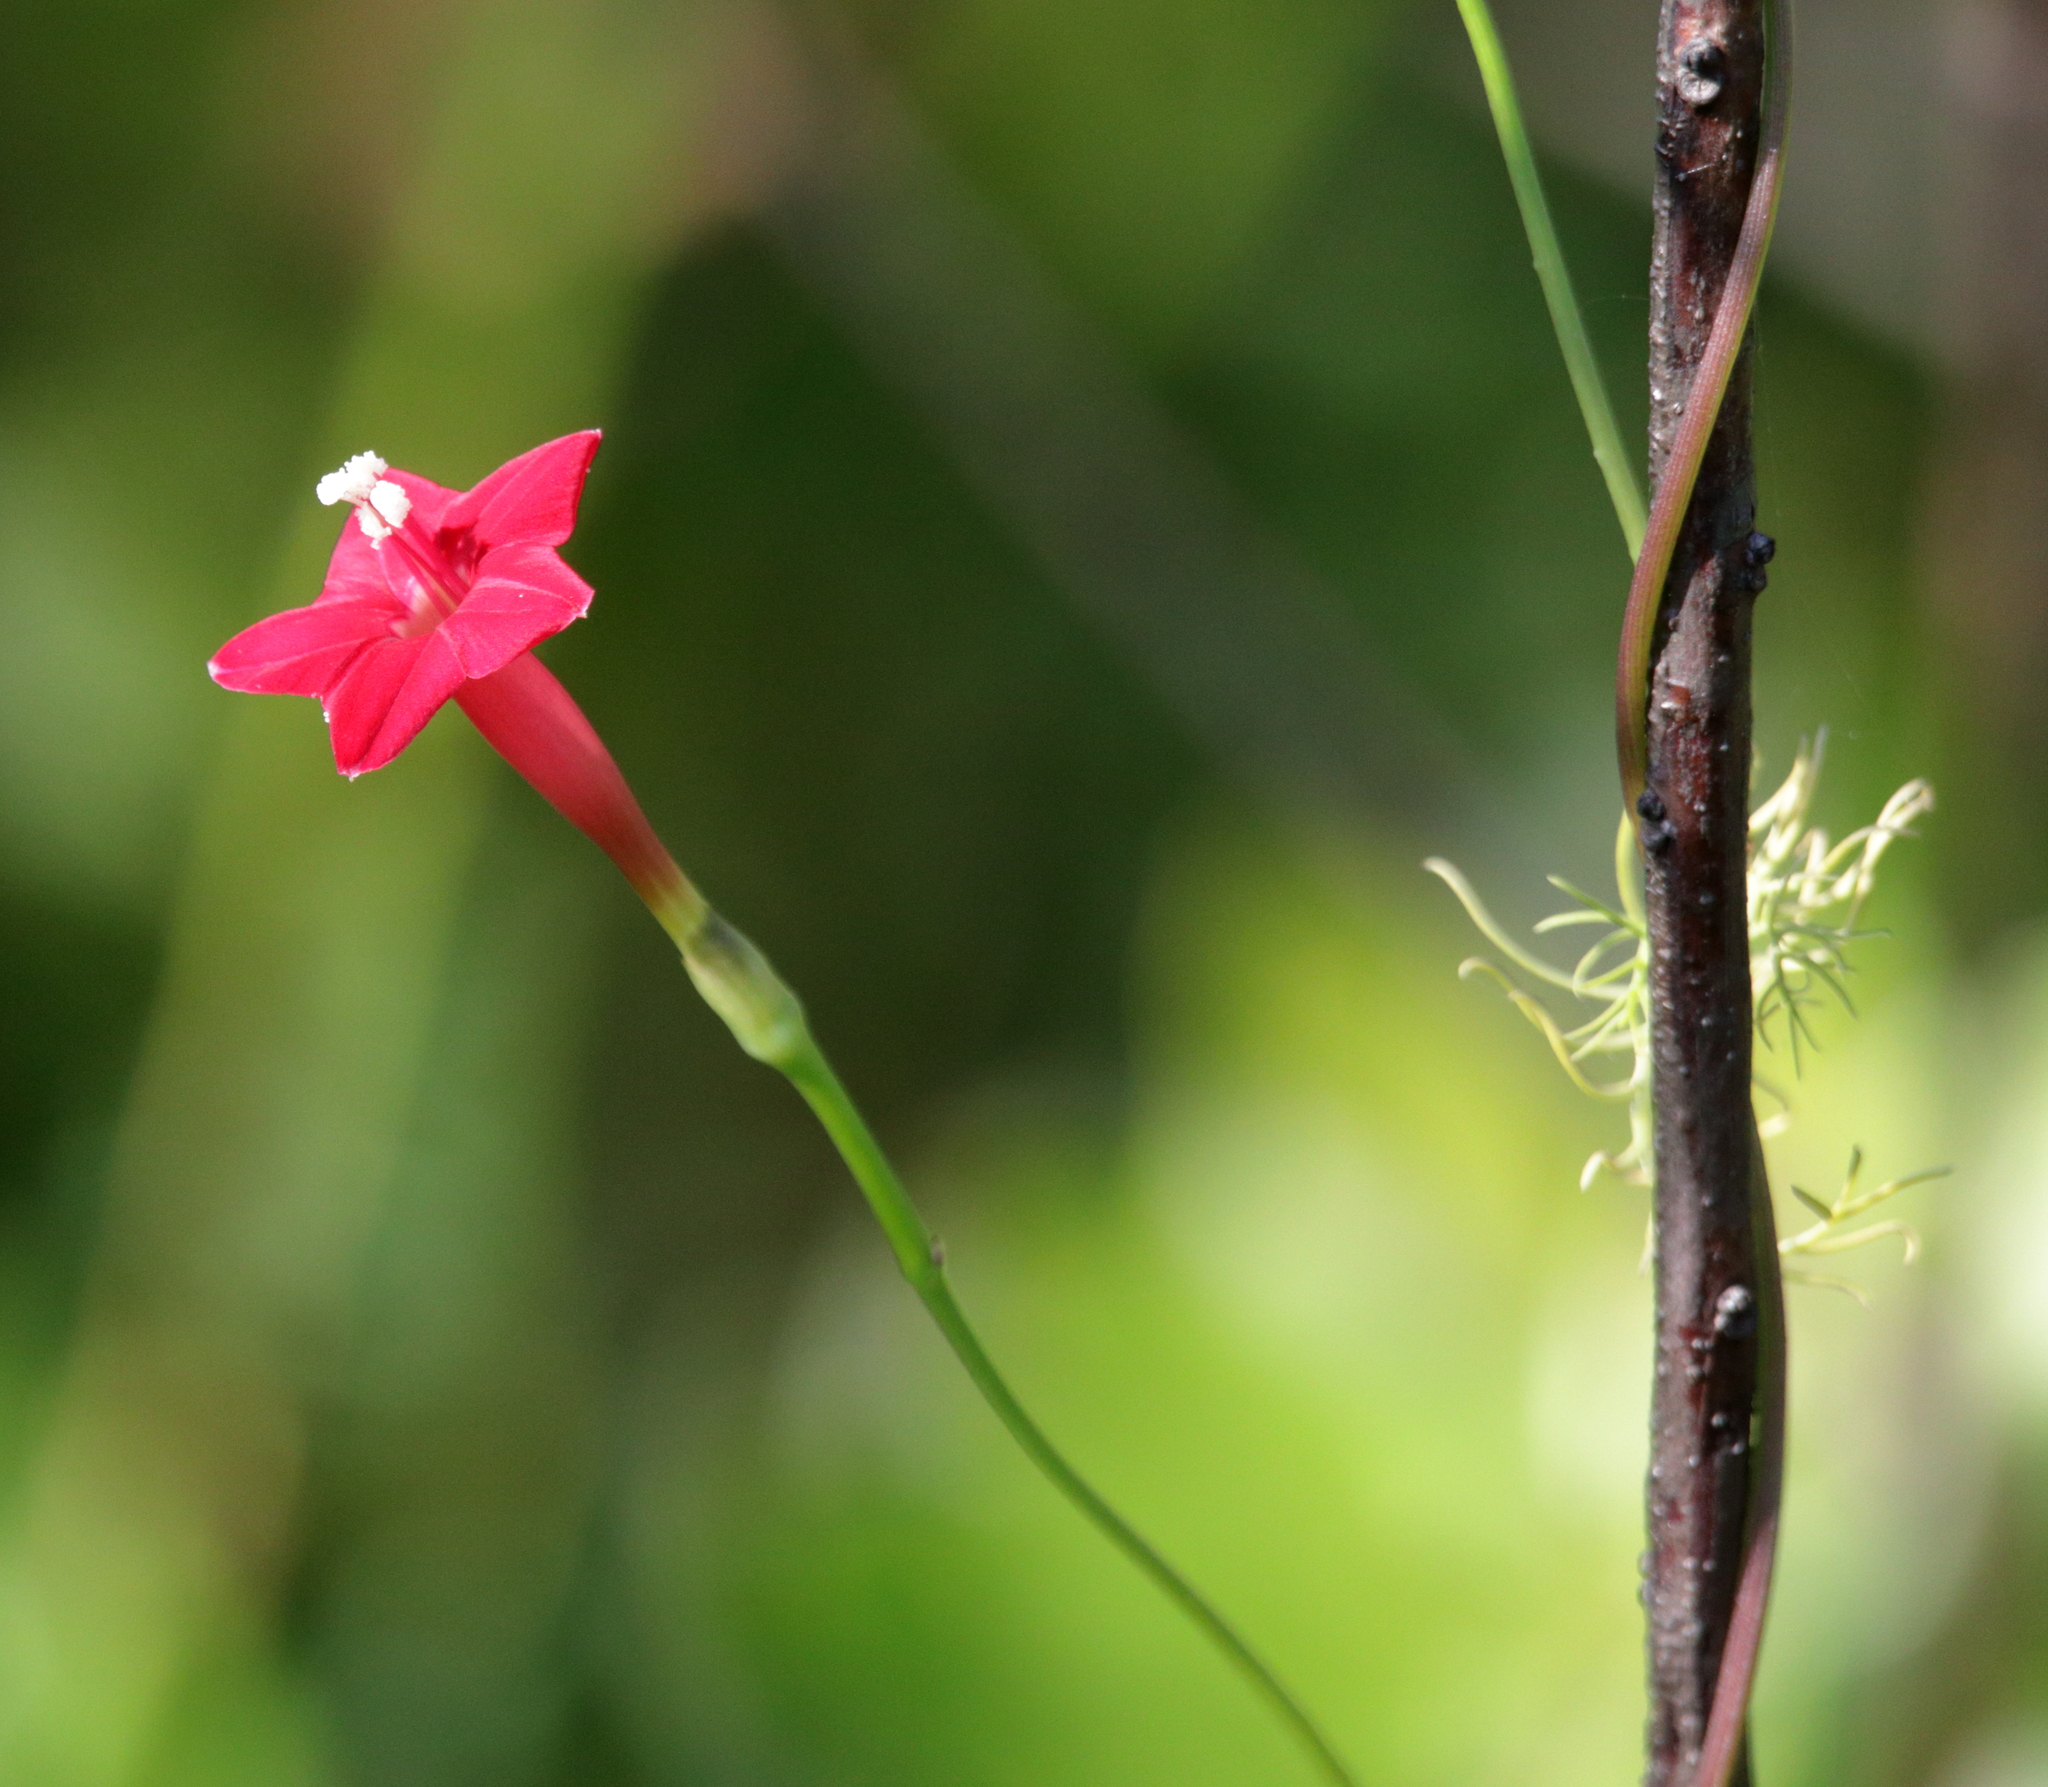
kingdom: Plantae
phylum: Tracheophyta
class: Magnoliopsida
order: Solanales
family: Convolvulaceae
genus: Ipomoea
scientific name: Ipomoea quamoclit
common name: Cypress vine
